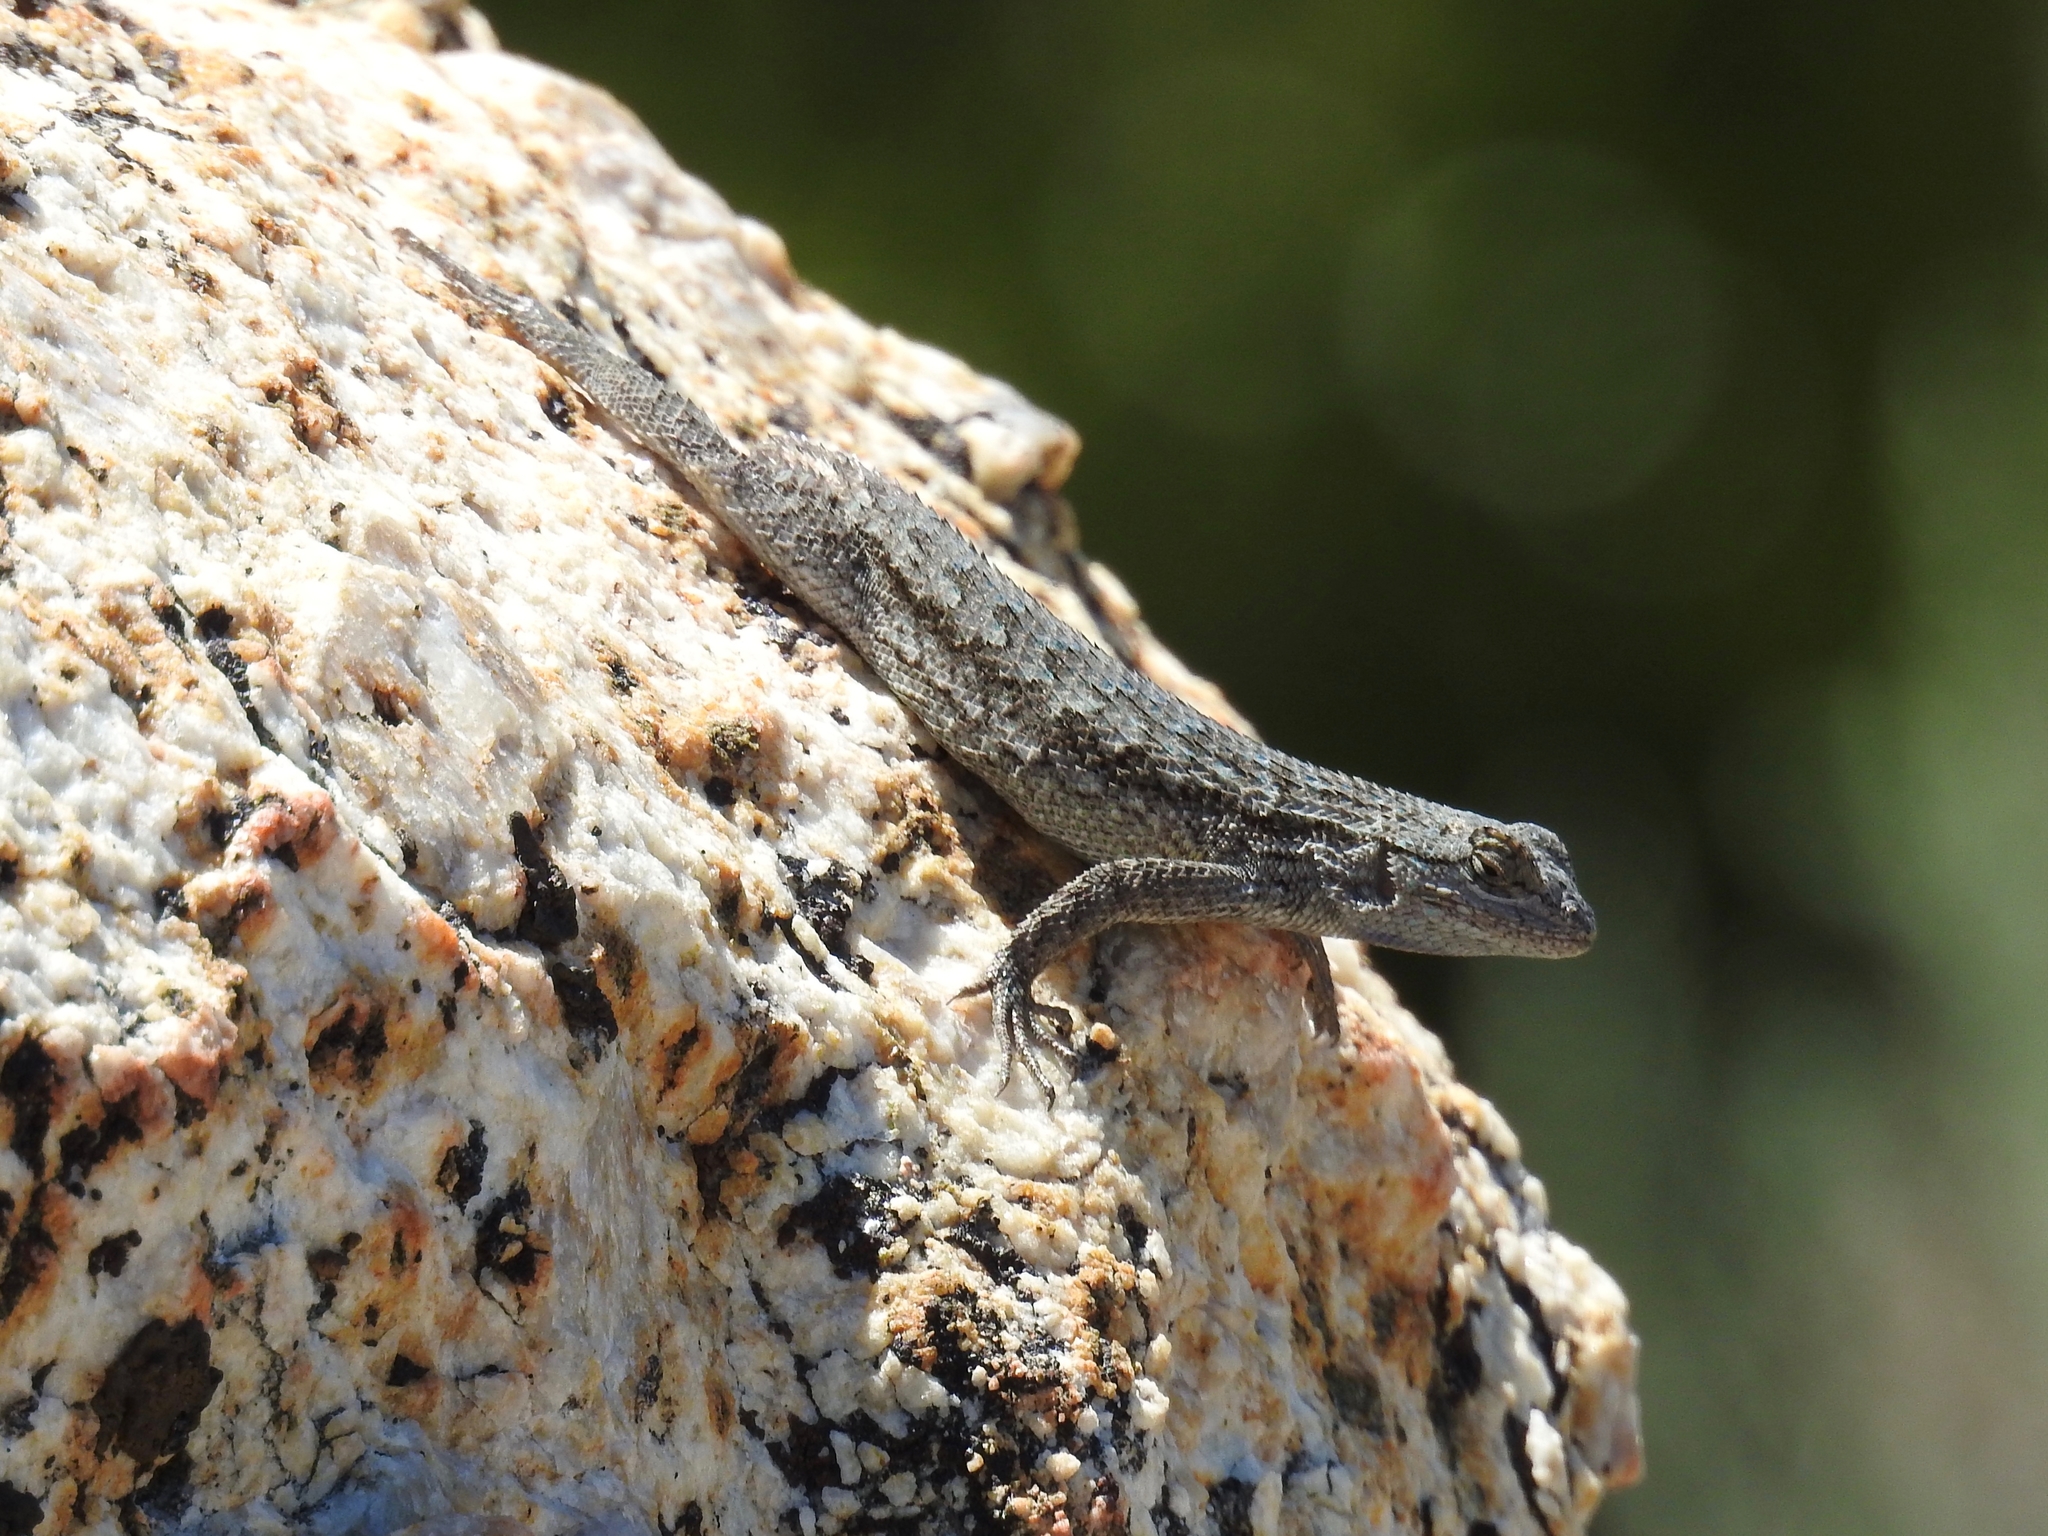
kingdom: Animalia
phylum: Chordata
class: Squamata
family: Phrynosomatidae
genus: Sceloporus
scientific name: Sceloporus occidentalis
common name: Western fence lizard
